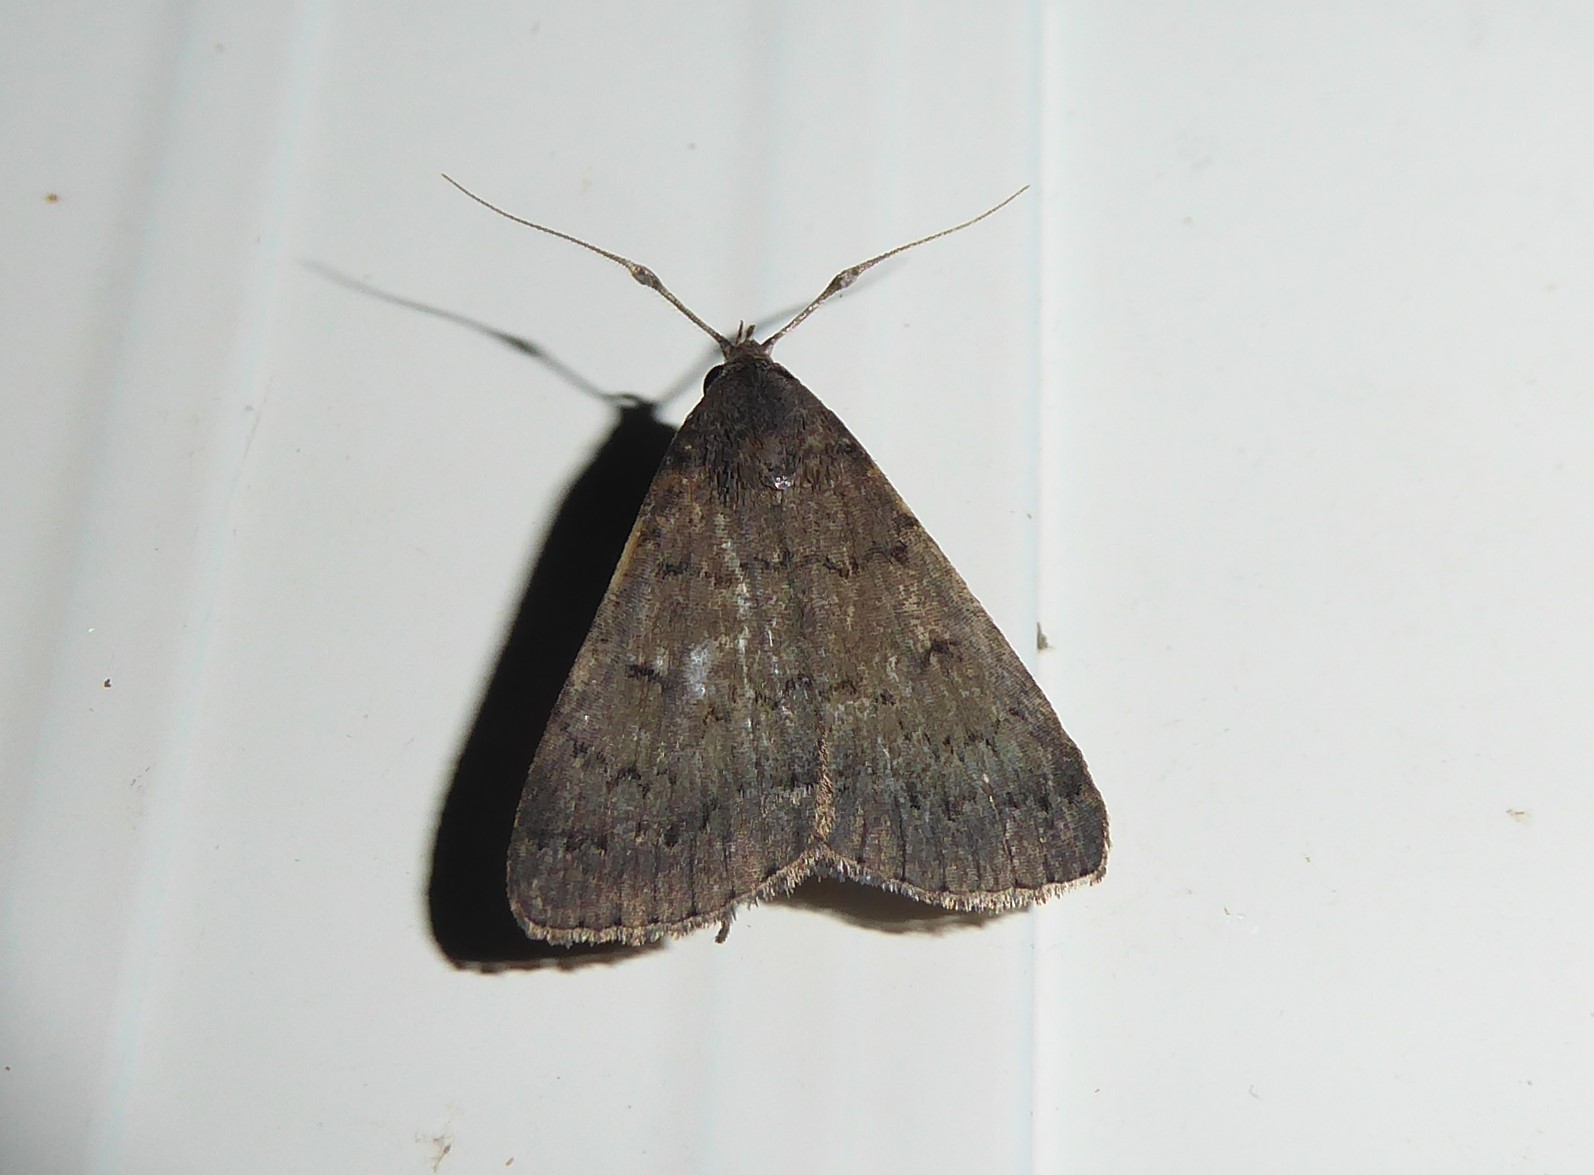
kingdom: Animalia
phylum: Arthropoda
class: Insecta
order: Lepidoptera
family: Erebidae
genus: Simplicia
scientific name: Simplicia cornicalis
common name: Tiki hut litter moth
